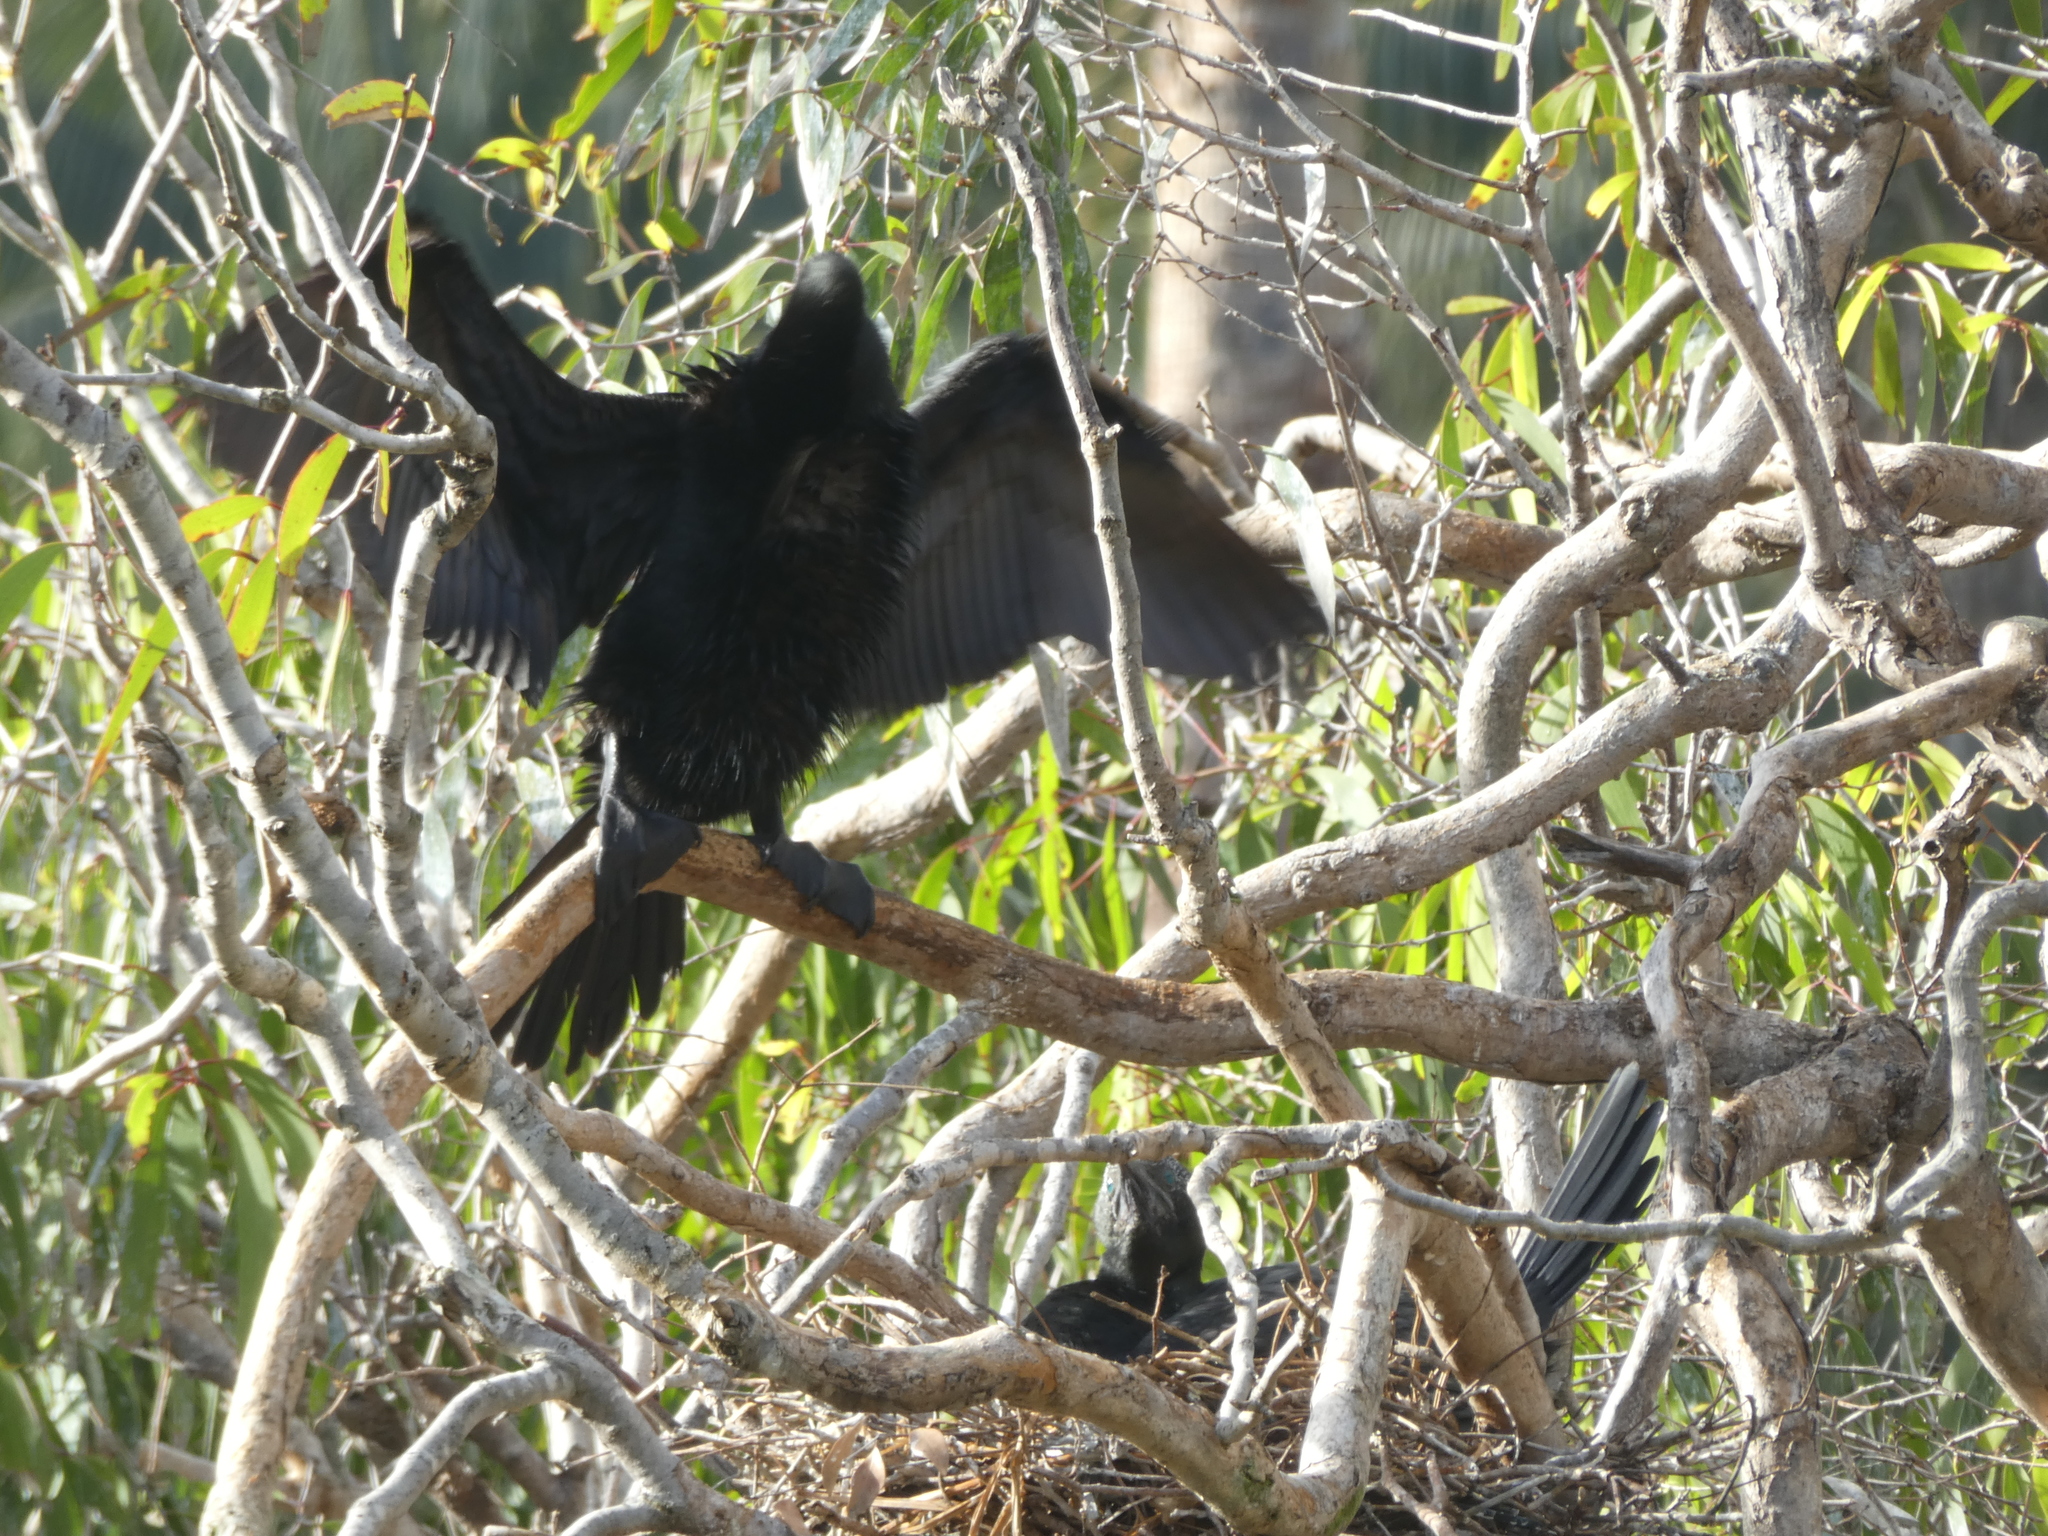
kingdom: Animalia
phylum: Chordata
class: Aves
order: Suliformes
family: Phalacrocoracidae
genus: Phalacrocorax
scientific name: Phalacrocorax sulcirostris
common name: Little black cormorant
